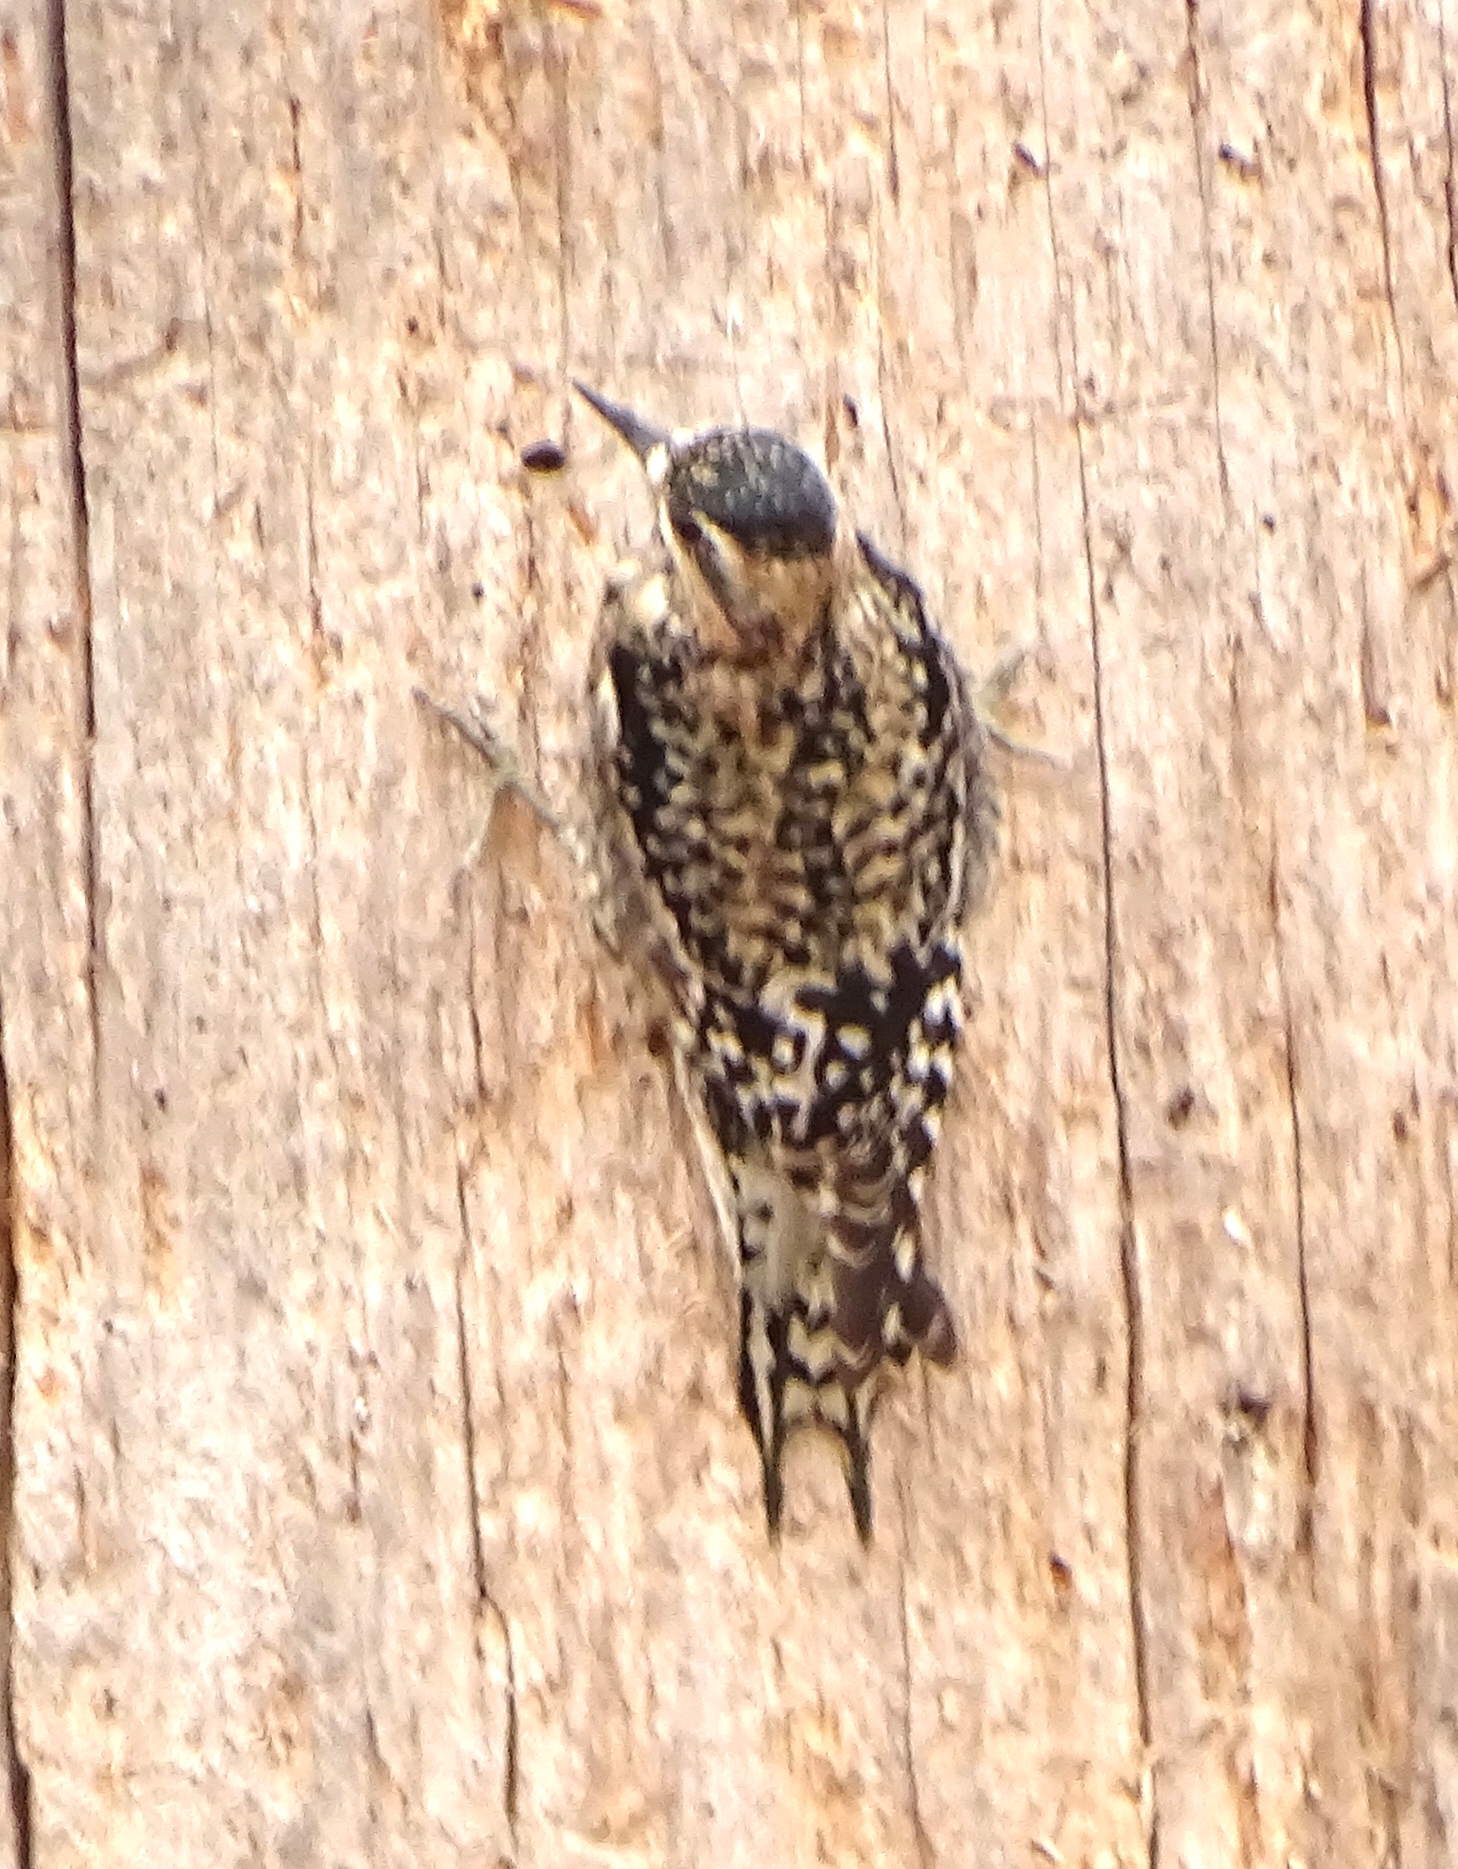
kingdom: Animalia
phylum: Chordata
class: Aves
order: Piciformes
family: Picidae
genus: Sphyrapicus
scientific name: Sphyrapicus varius
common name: Yellow-bellied sapsucker
